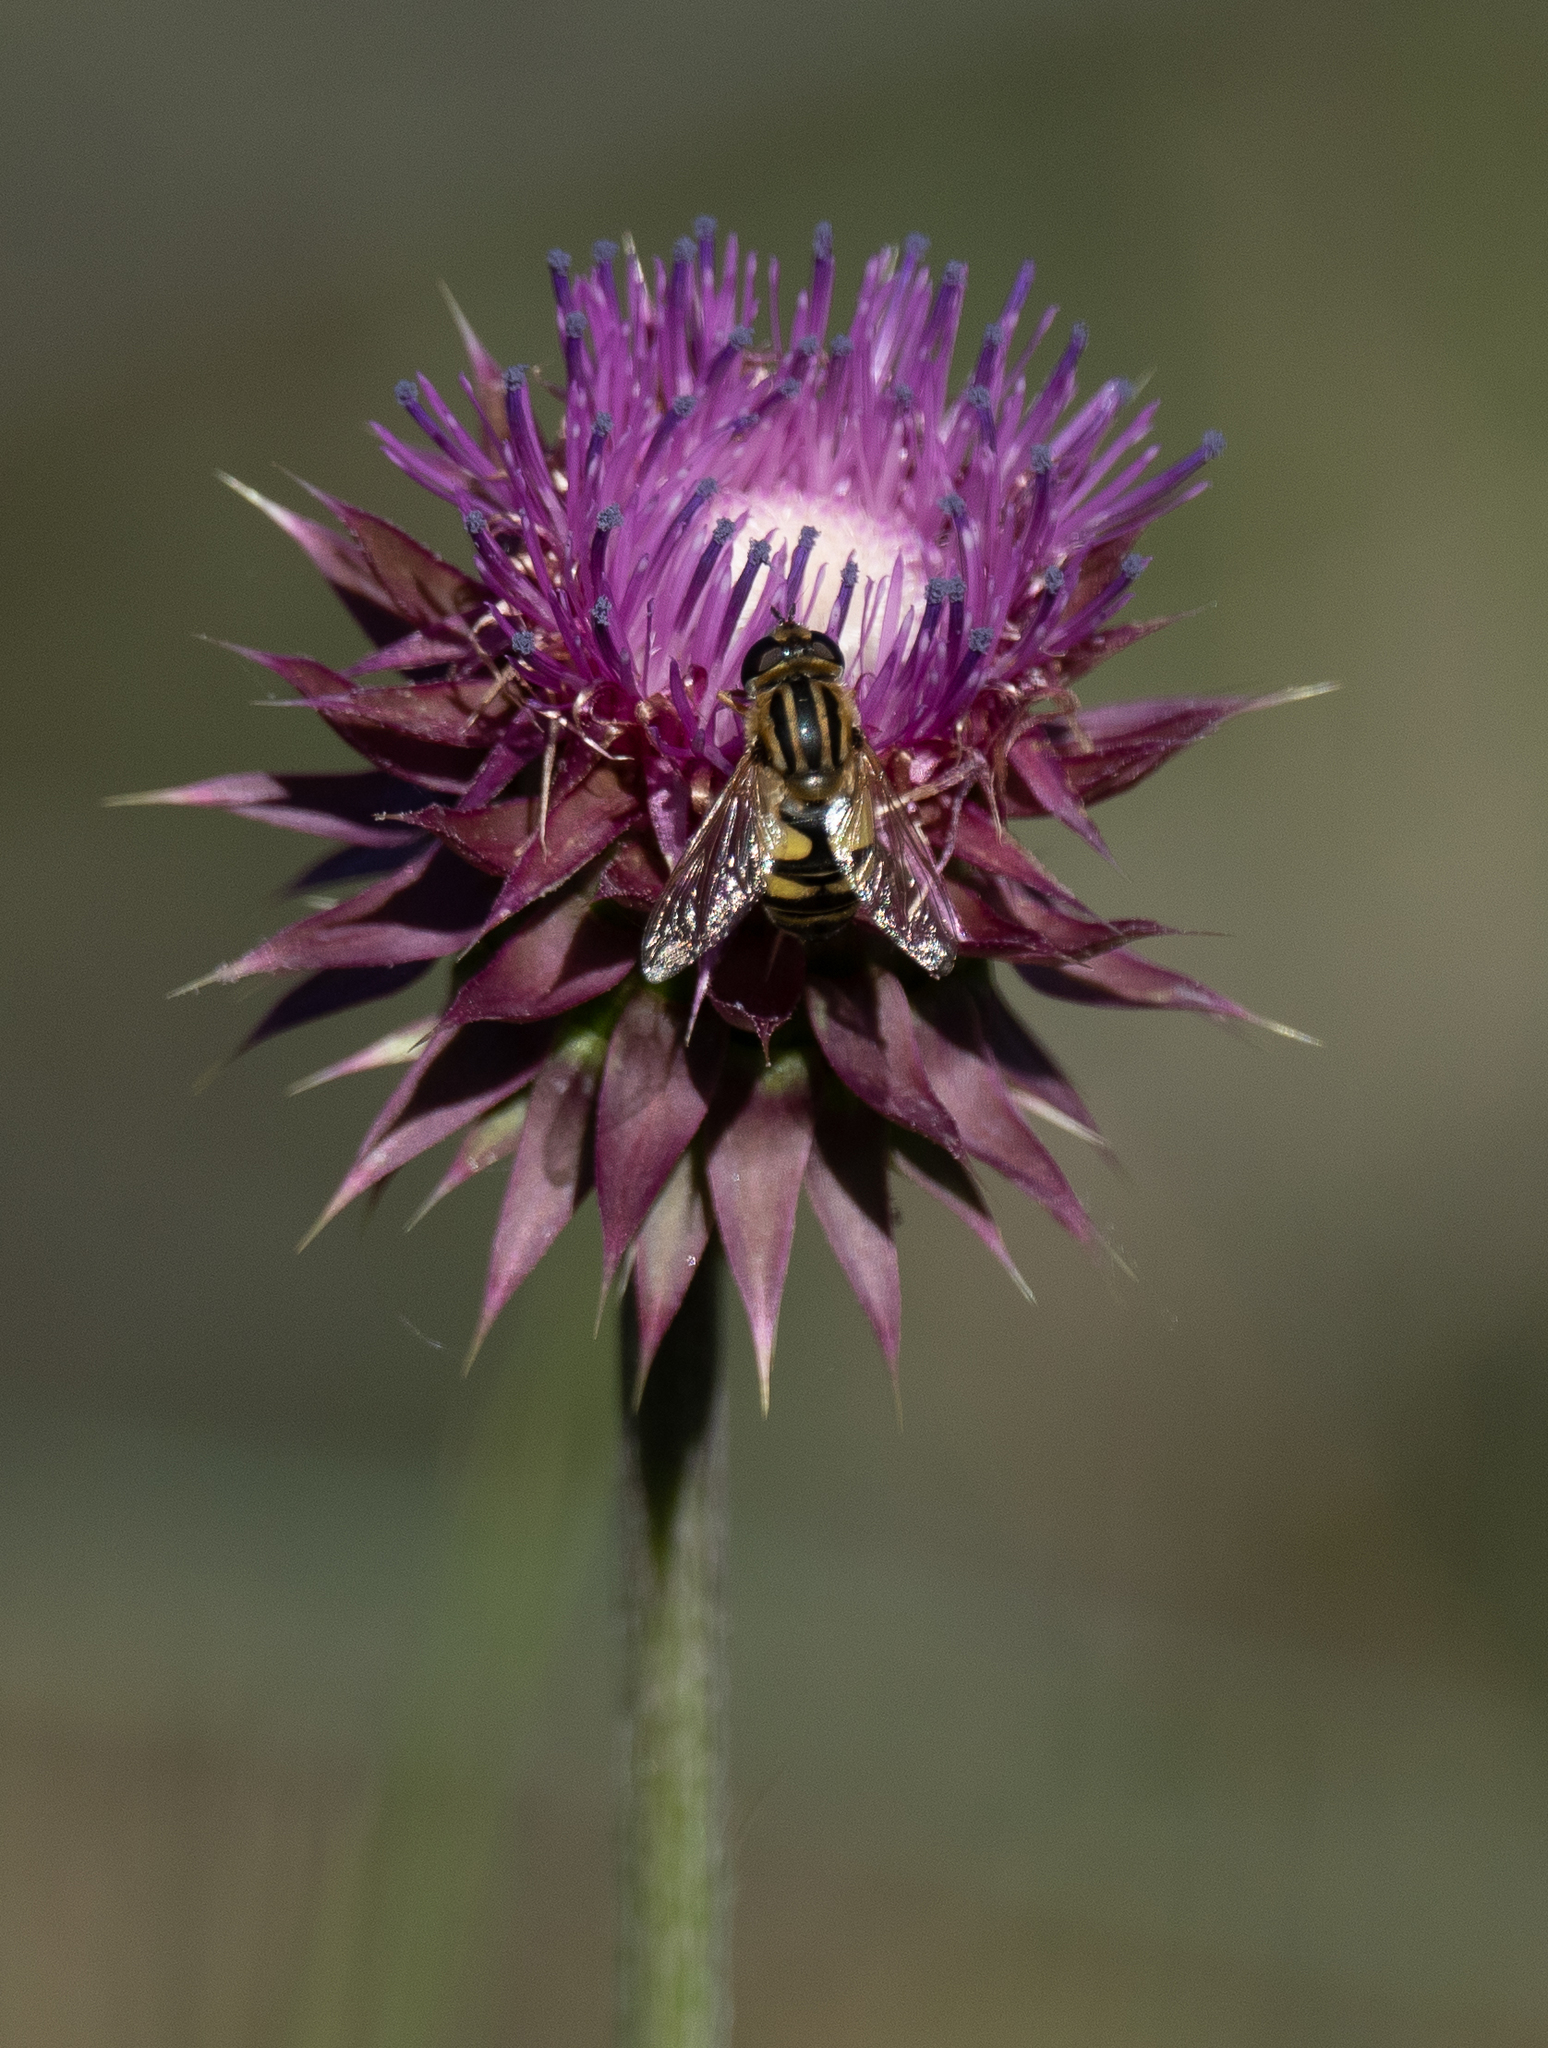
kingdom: Animalia
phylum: Arthropoda
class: Insecta
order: Diptera
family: Syrphidae
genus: Helophilus
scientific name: Helophilus fasciatus
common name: Narrow-headed marsh fly
